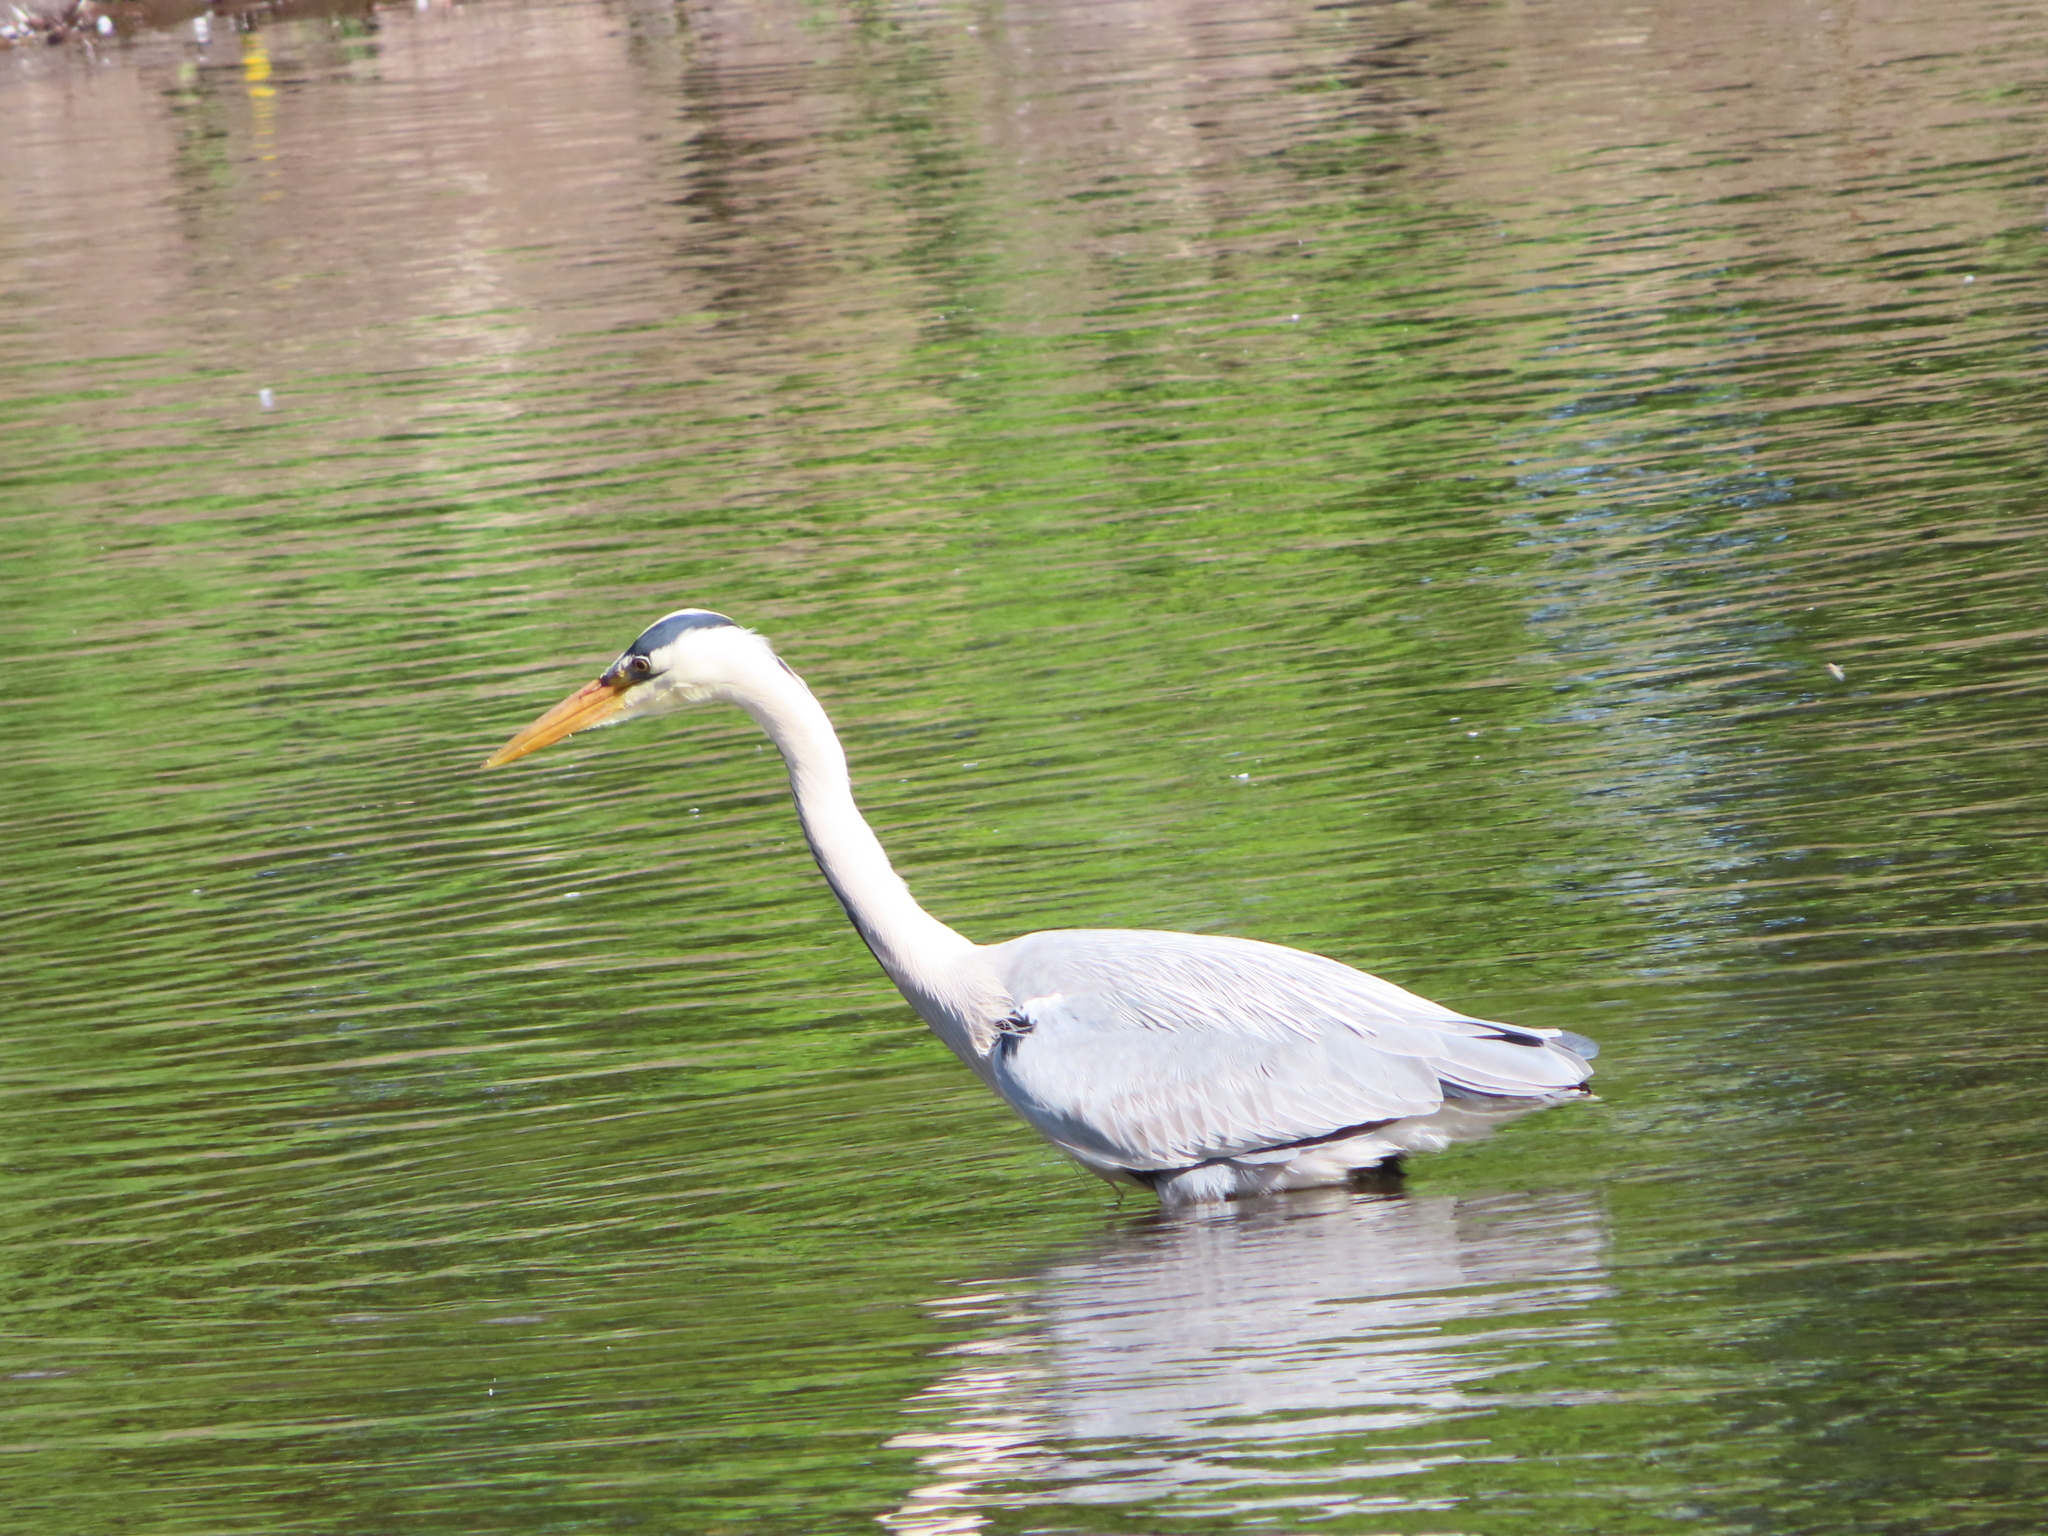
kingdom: Animalia
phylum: Chordata
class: Aves
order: Pelecaniformes
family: Ardeidae
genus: Ardea
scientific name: Ardea cinerea
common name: Grey heron
